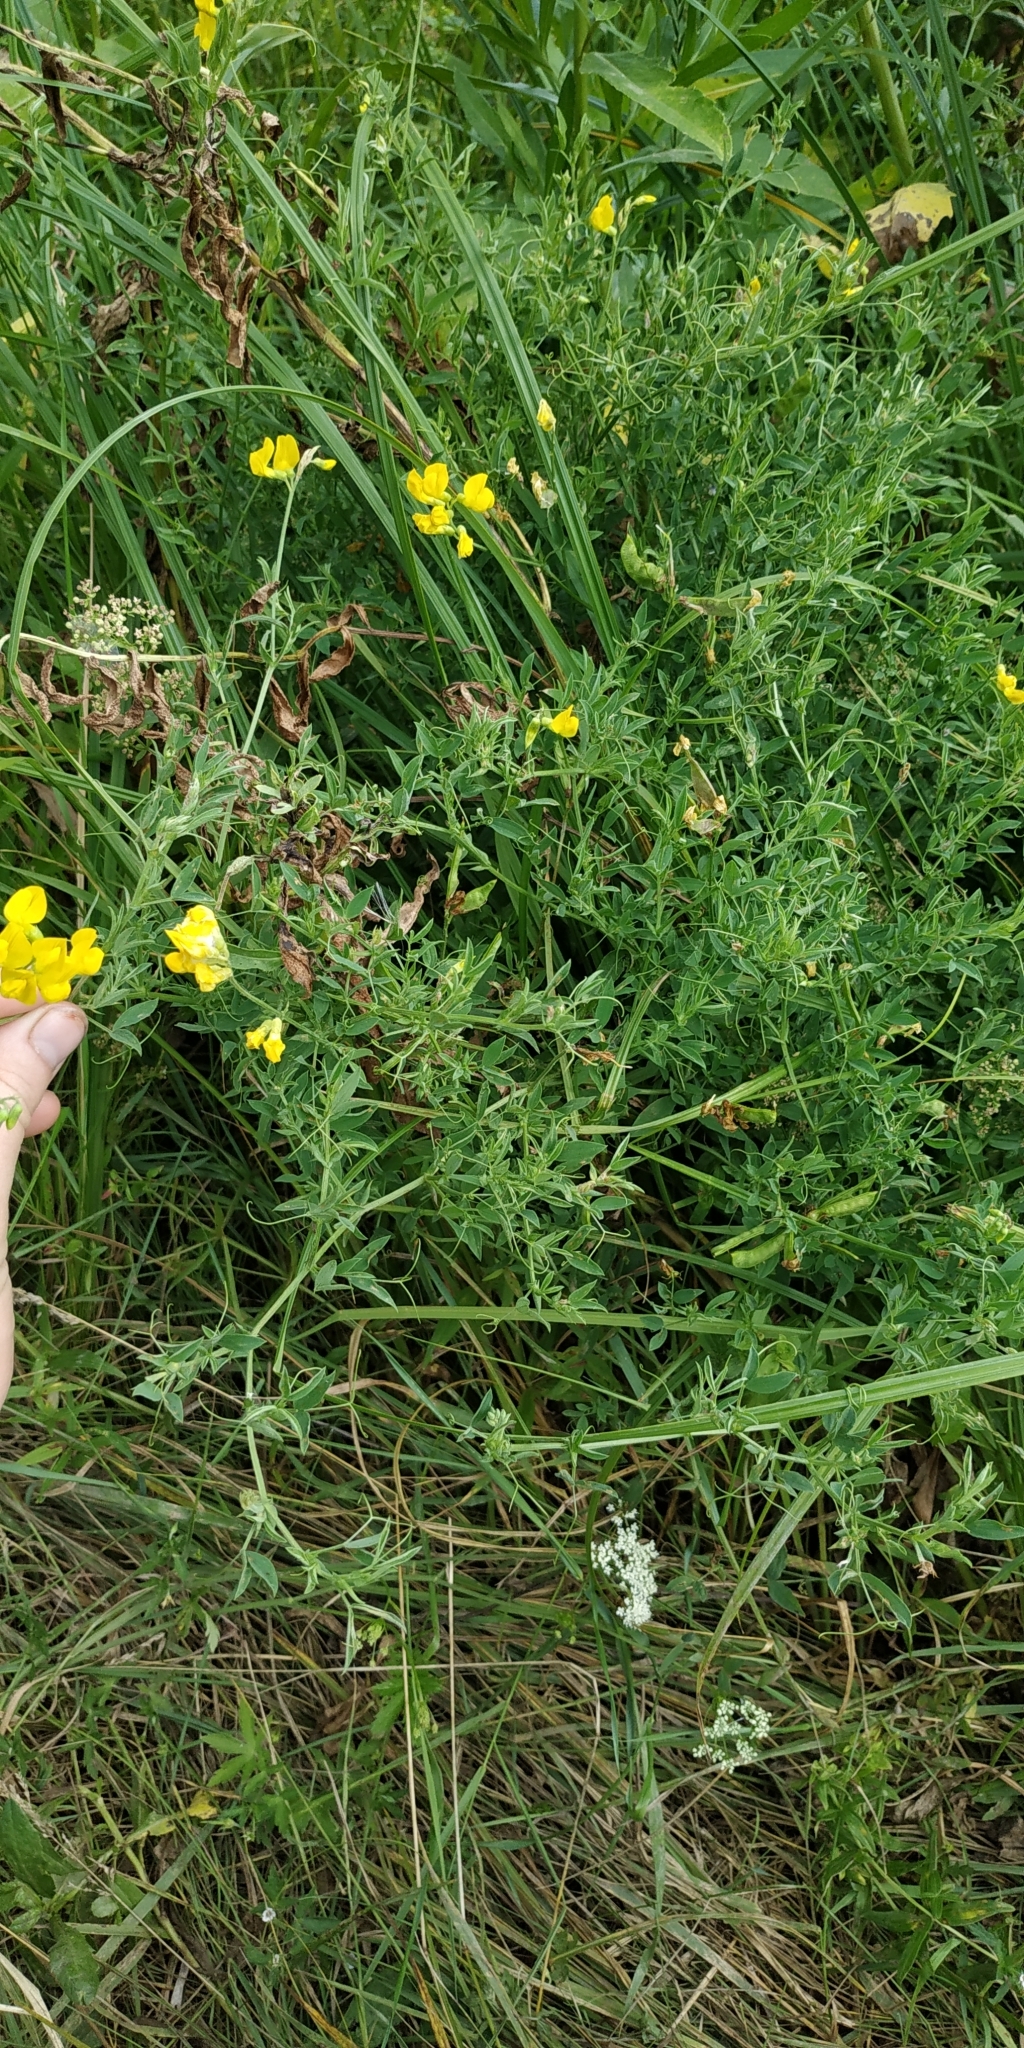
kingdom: Plantae
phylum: Tracheophyta
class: Magnoliopsida
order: Fabales
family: Fabaceae
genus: Lathyrus
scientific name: Lathyrus pratensis
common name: Meadow vetchling
